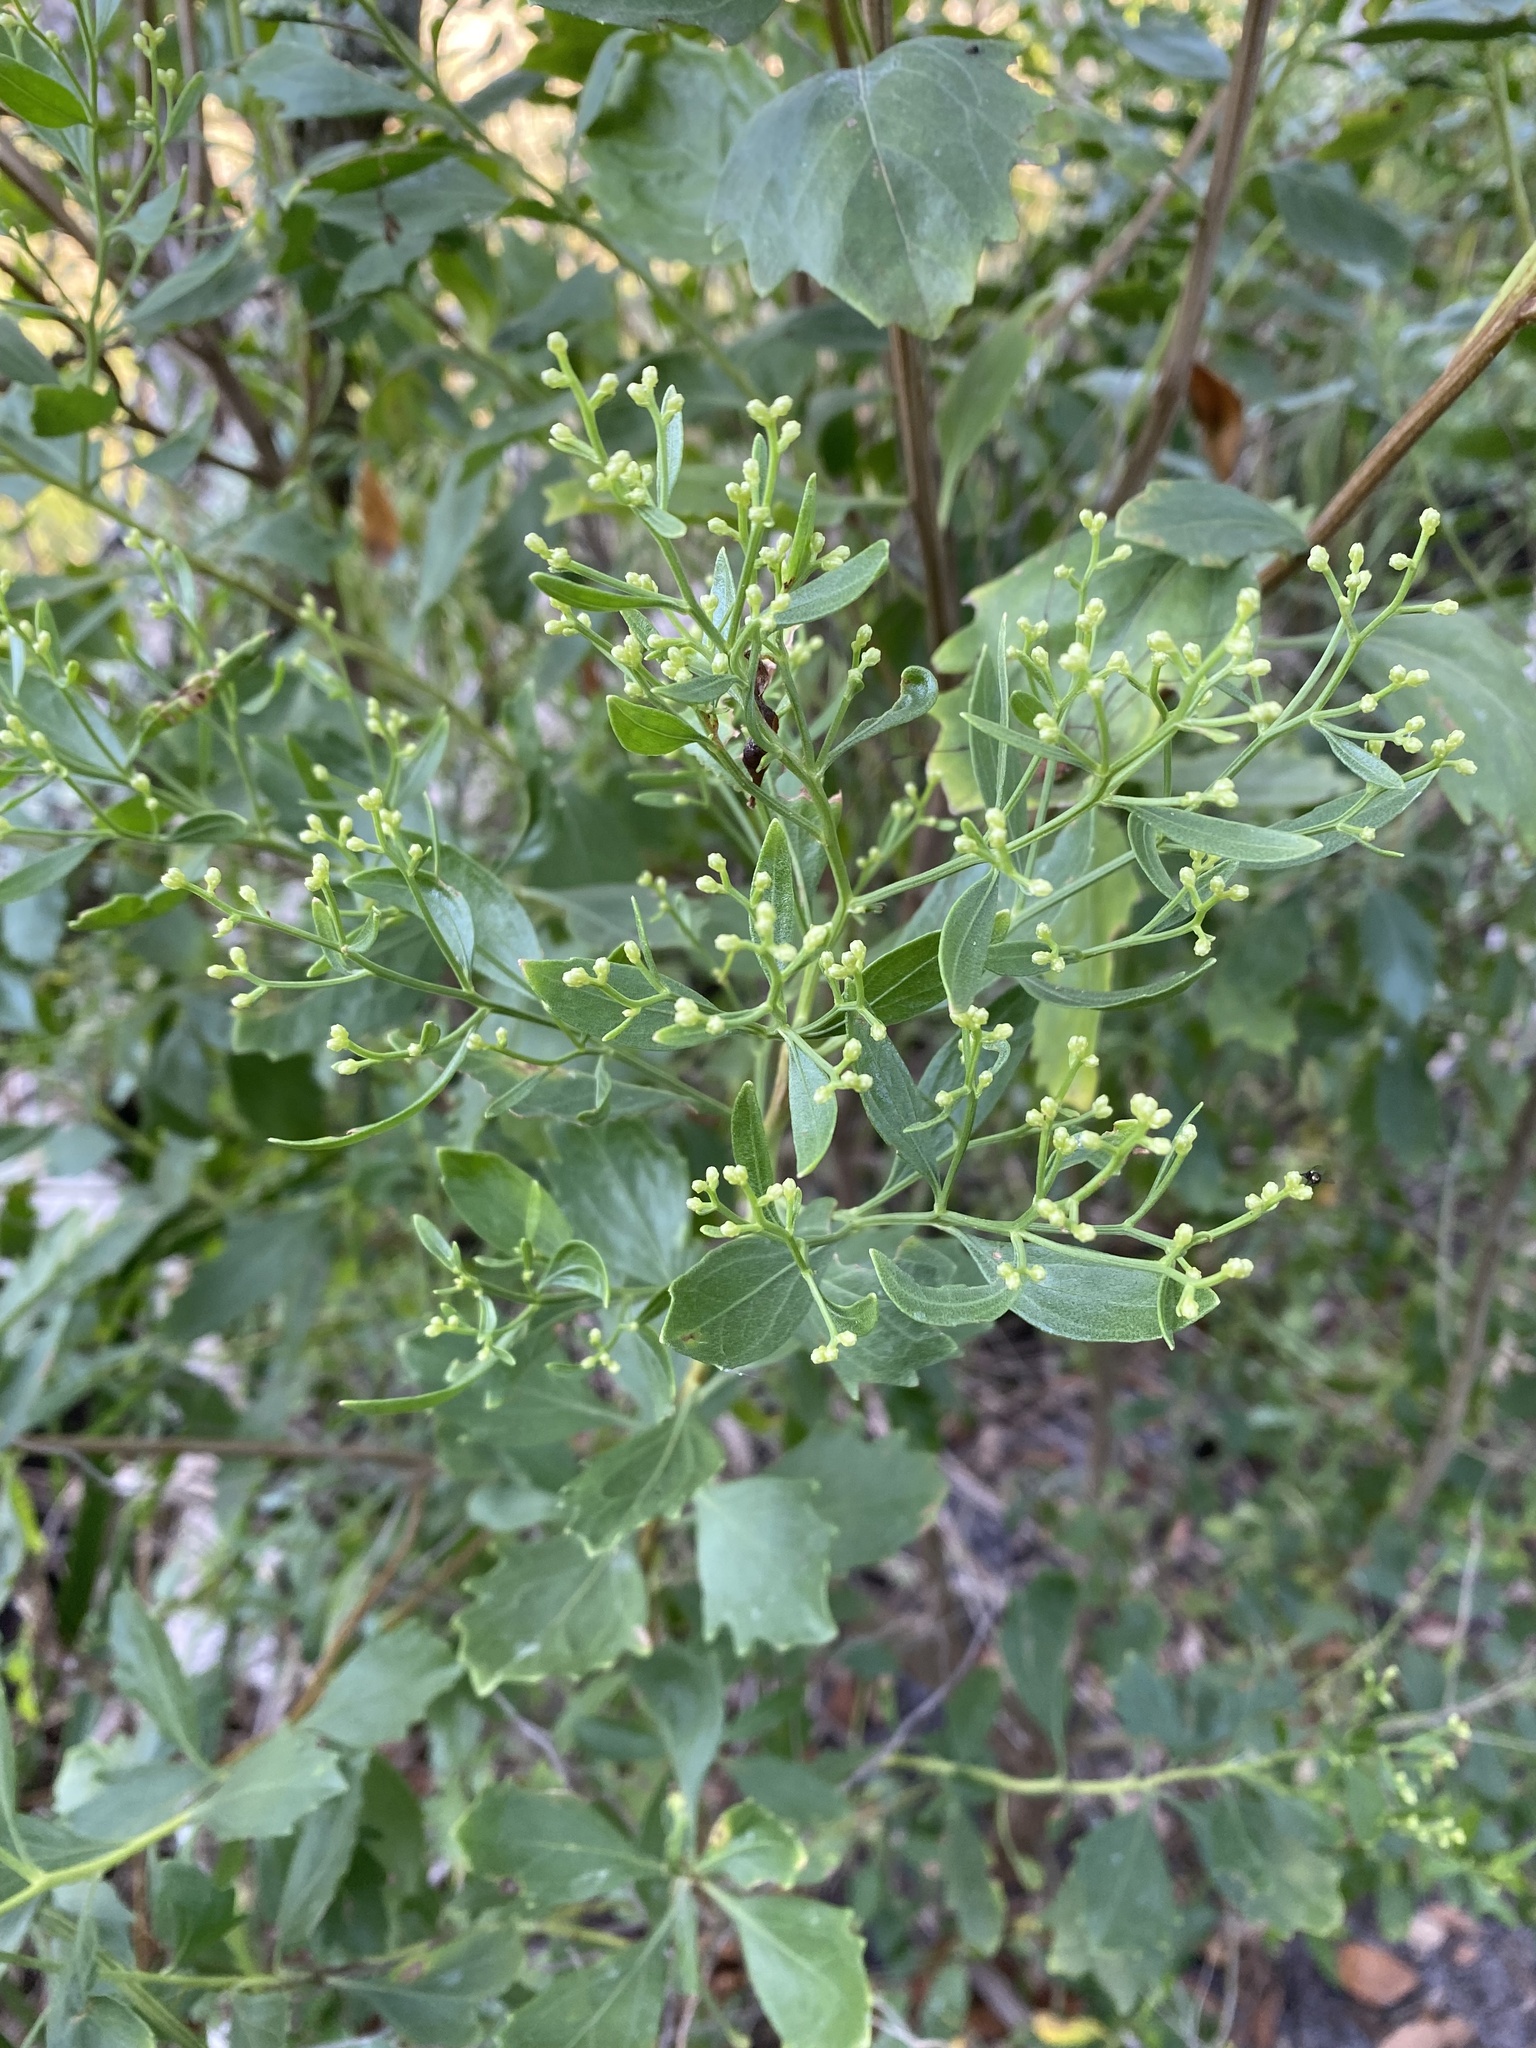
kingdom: Plantae
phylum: Tracheophyta
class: Magnoliopsida
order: Asterales
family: Asteraceae
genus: Baccharis
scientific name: Baccharis halimifolia
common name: Eastern baccharis
